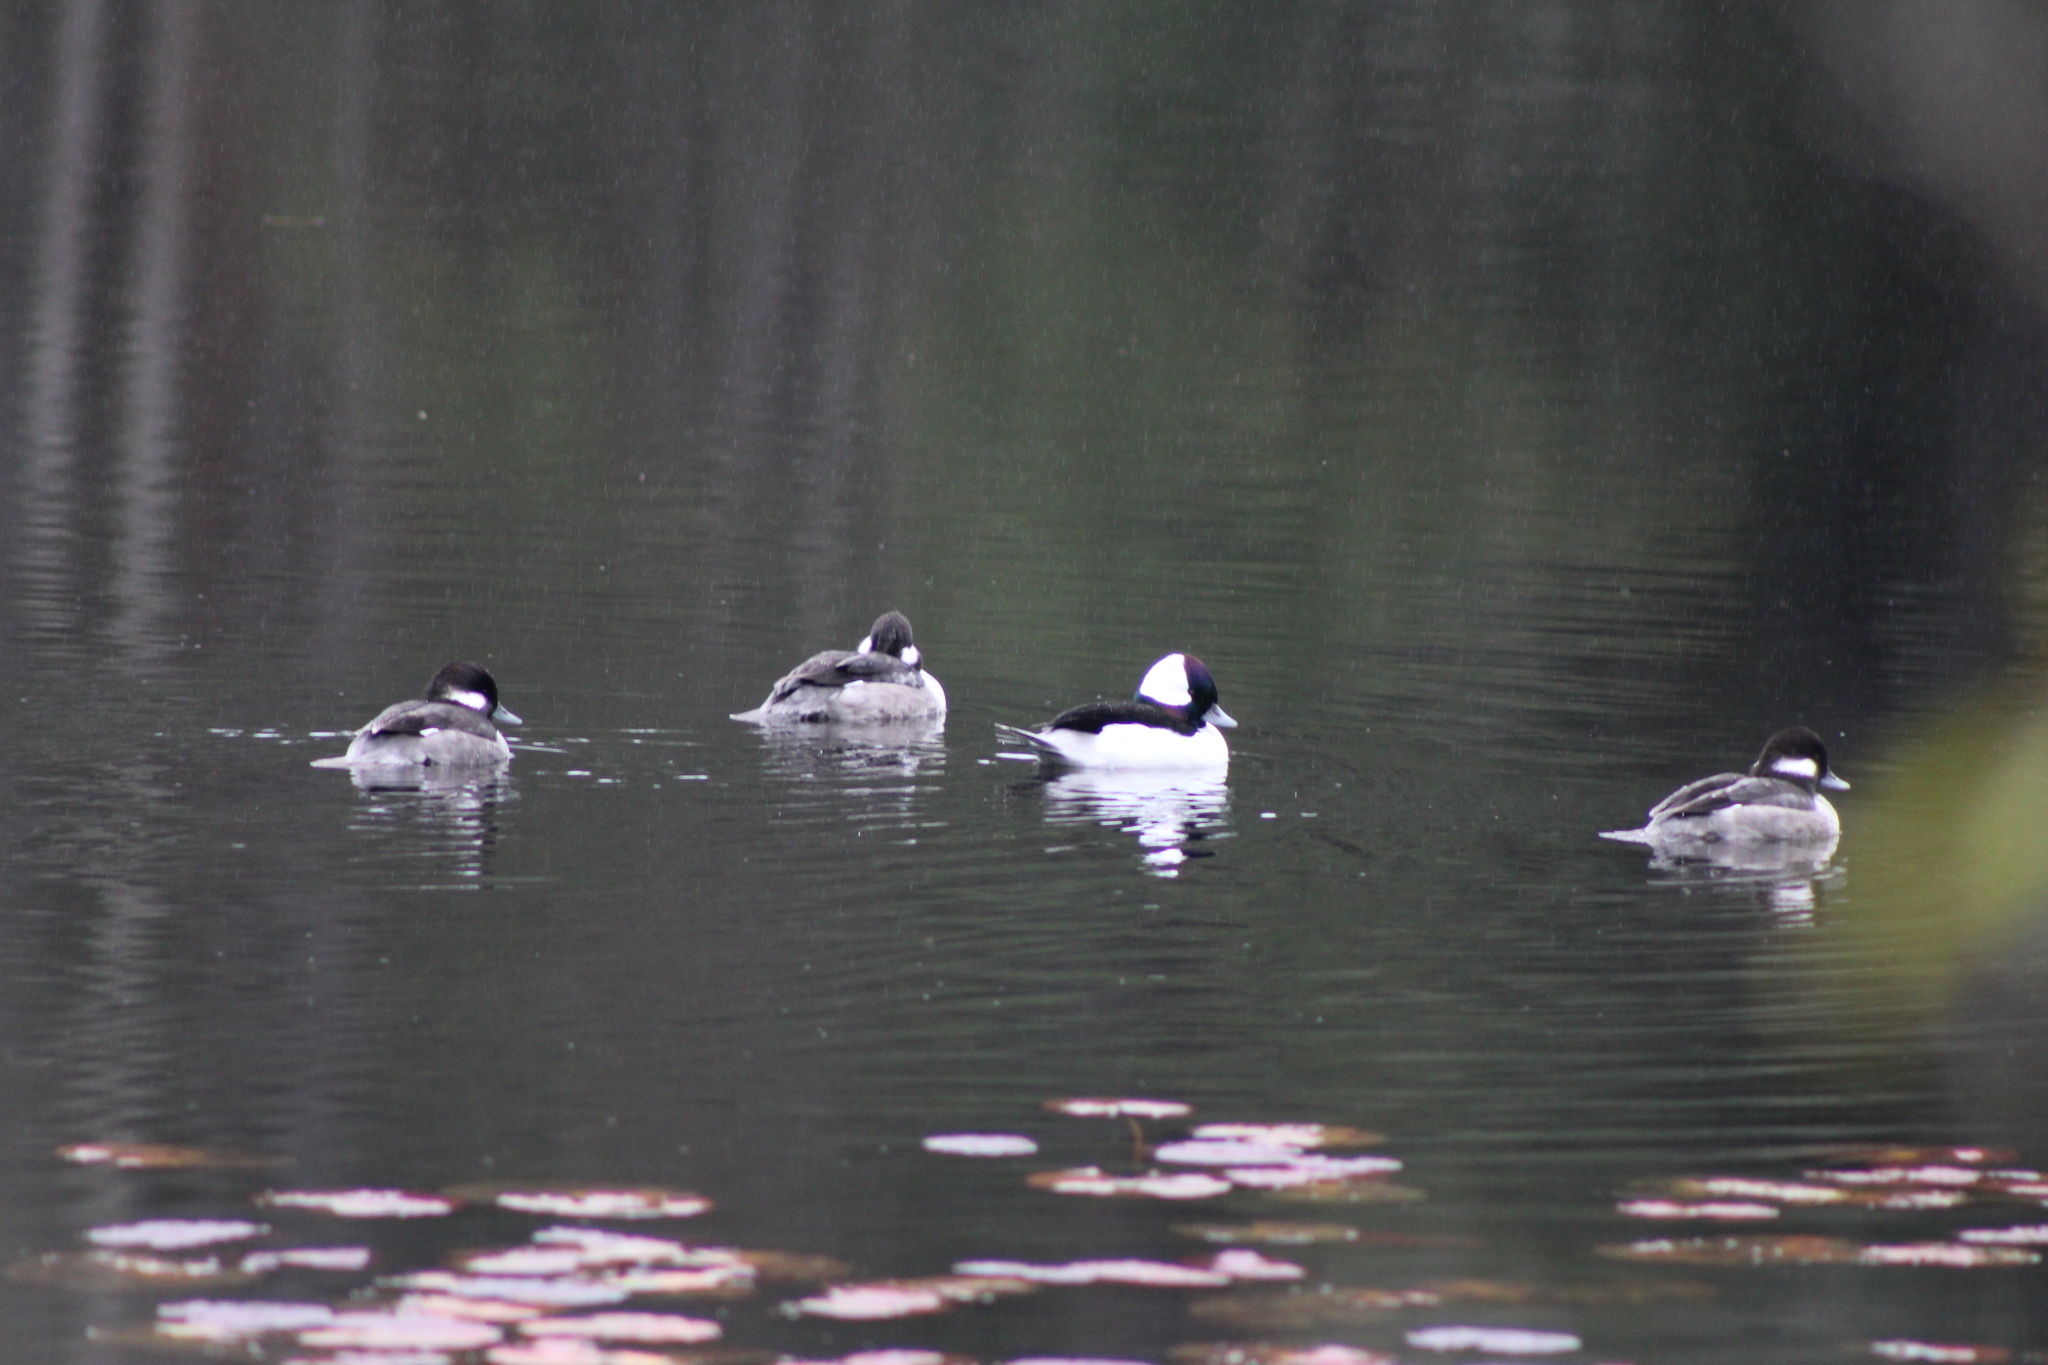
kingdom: Animalia
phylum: Chordata
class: Aves
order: Anseriformes
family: Anatidae
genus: Bucephala
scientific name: Bucephala albeola
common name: Bufflehead
